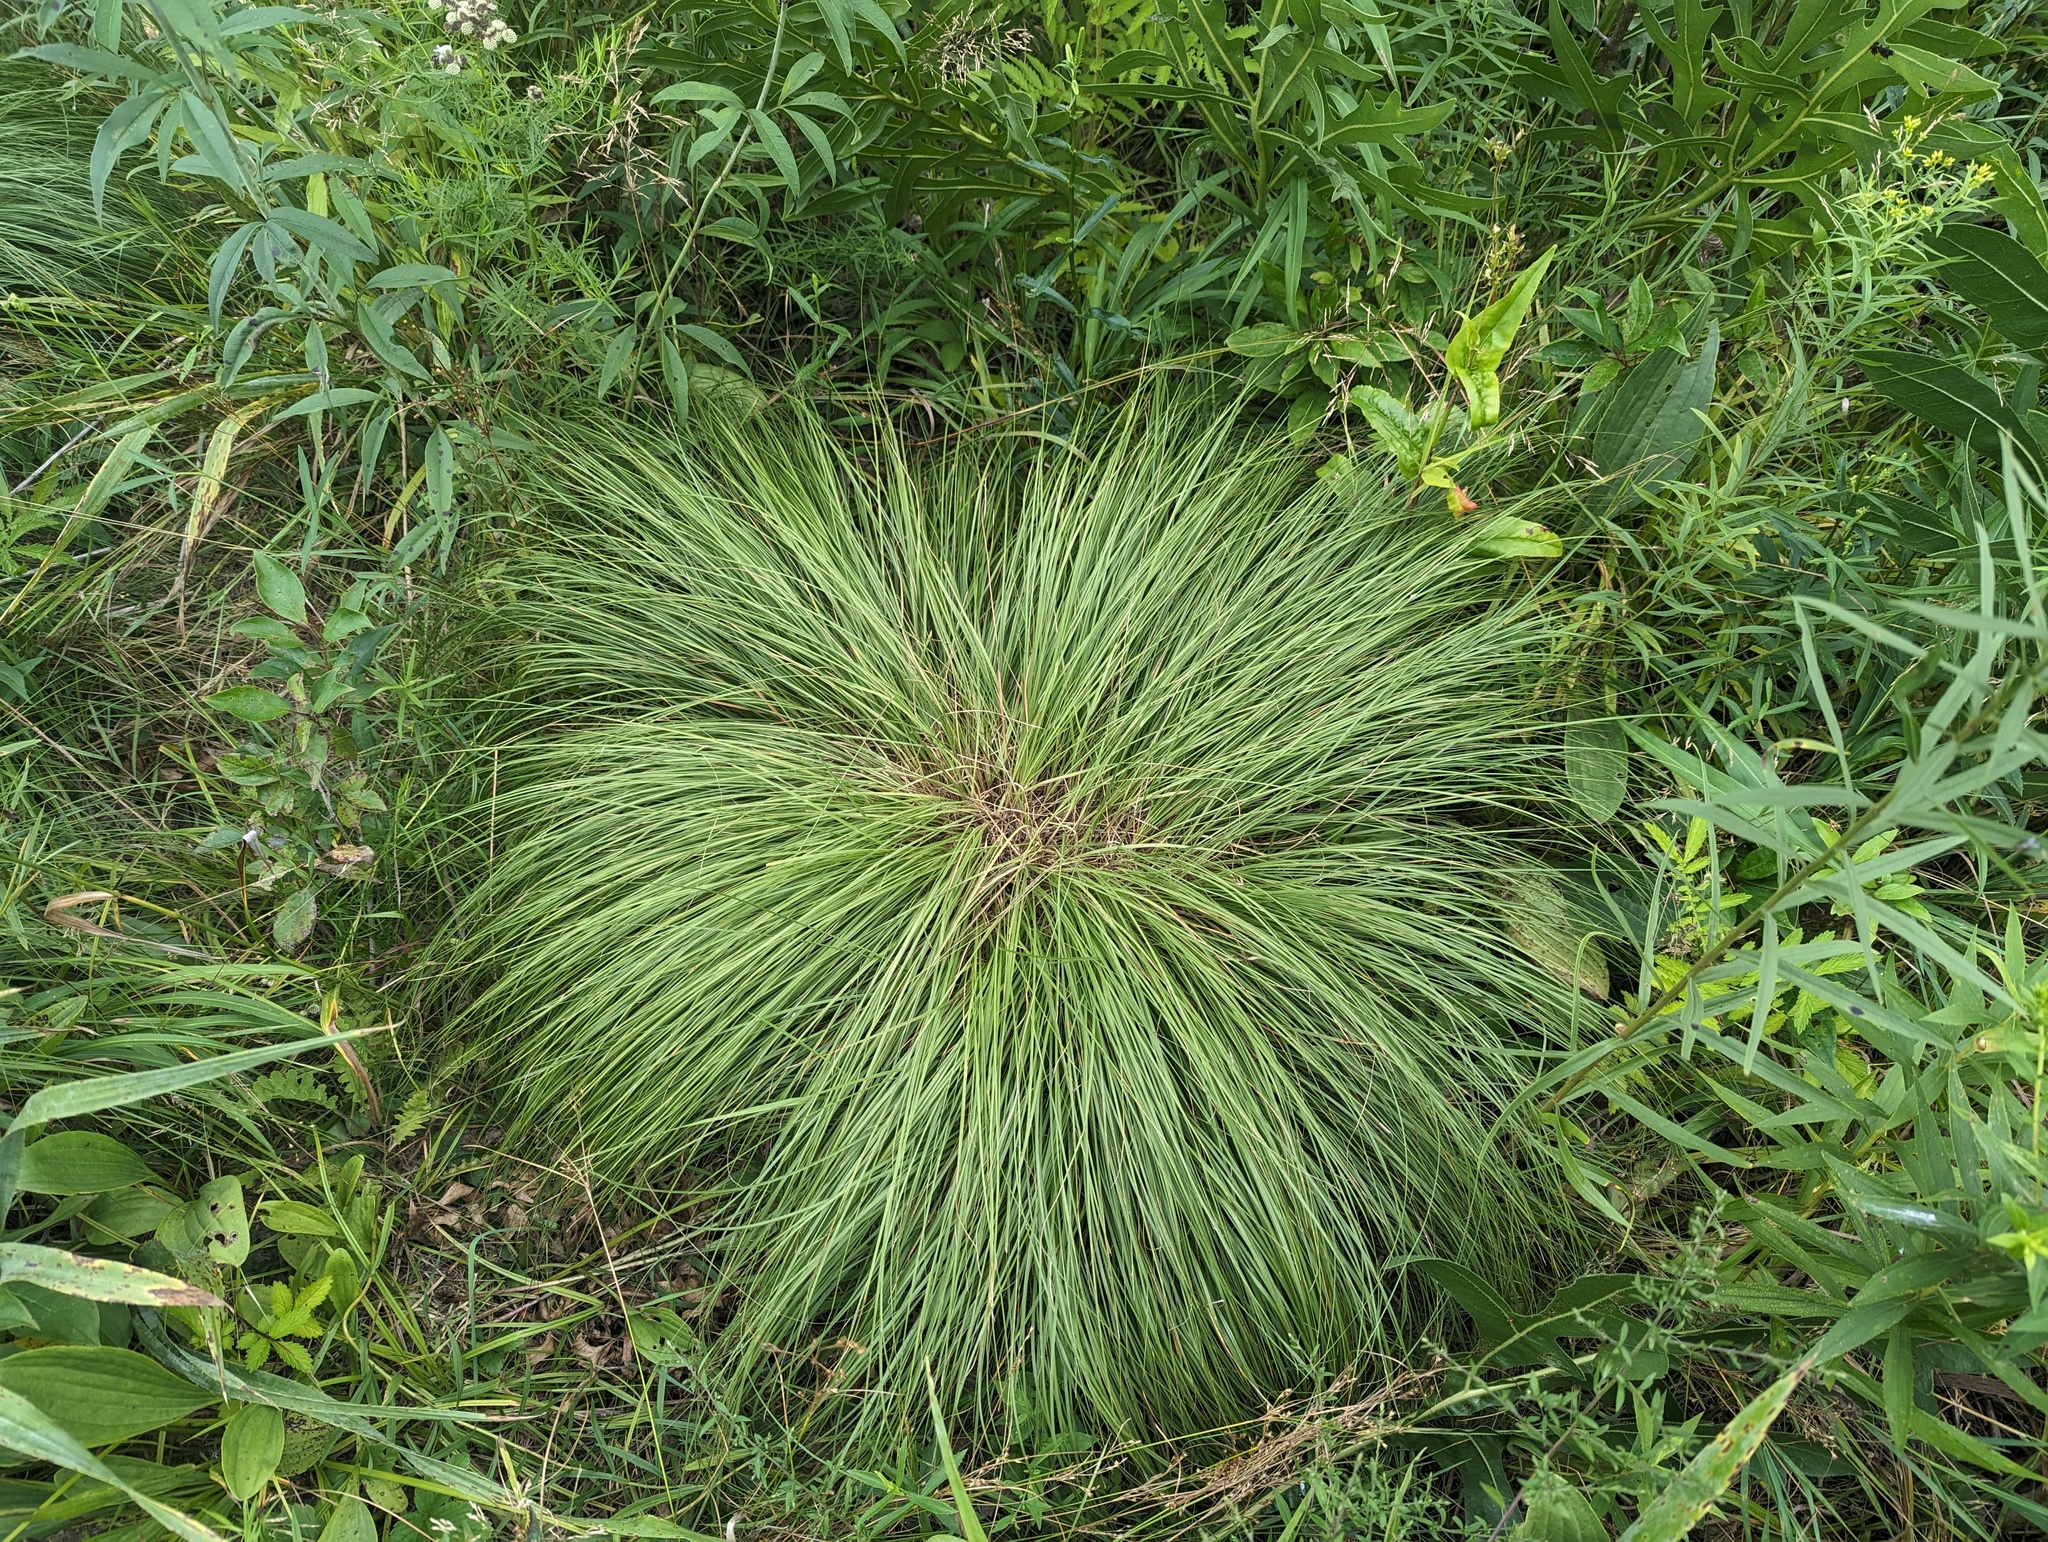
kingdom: Plantae
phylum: Tracheophyta
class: Liliopsida
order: Poales
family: Poaceae
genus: Sporobolus
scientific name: Sporobolus heterolepis
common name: Prairie dropseed
